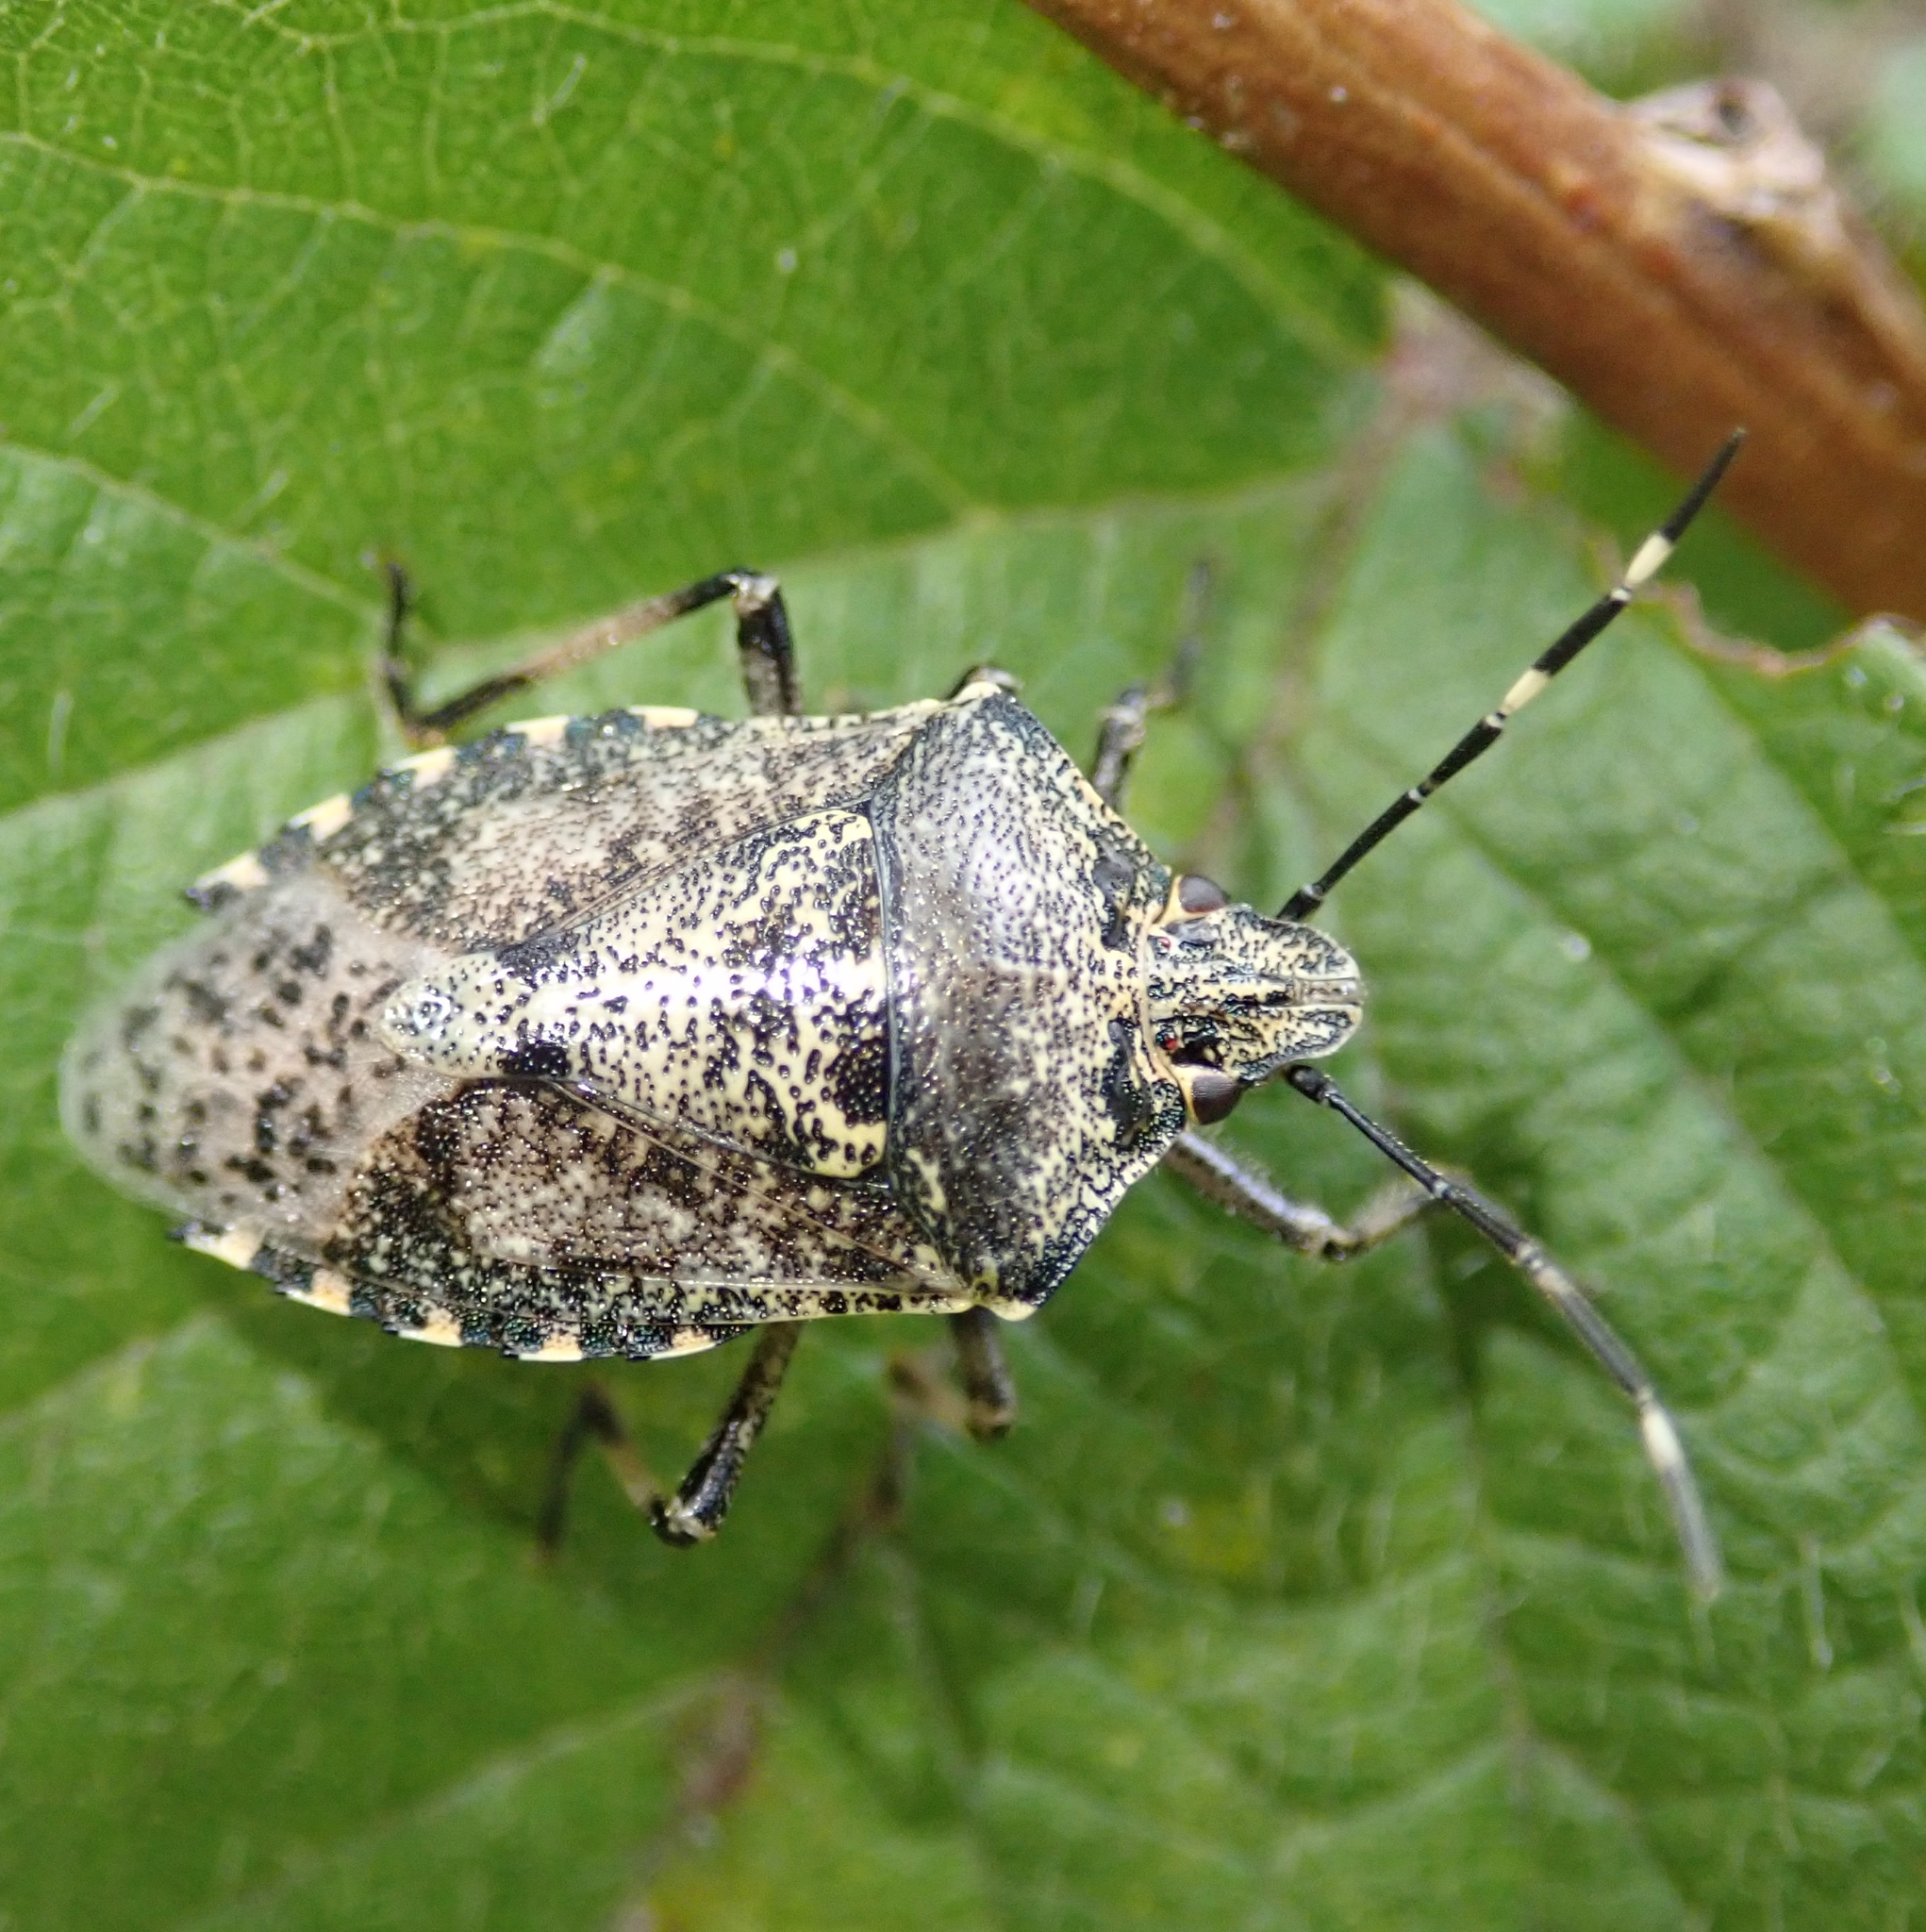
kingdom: Animalia
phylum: Arthropoda
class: Insecta
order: Hemiptera
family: Pentatomidae
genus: Rhaphigaster
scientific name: Rhaphigaster nebulosa
